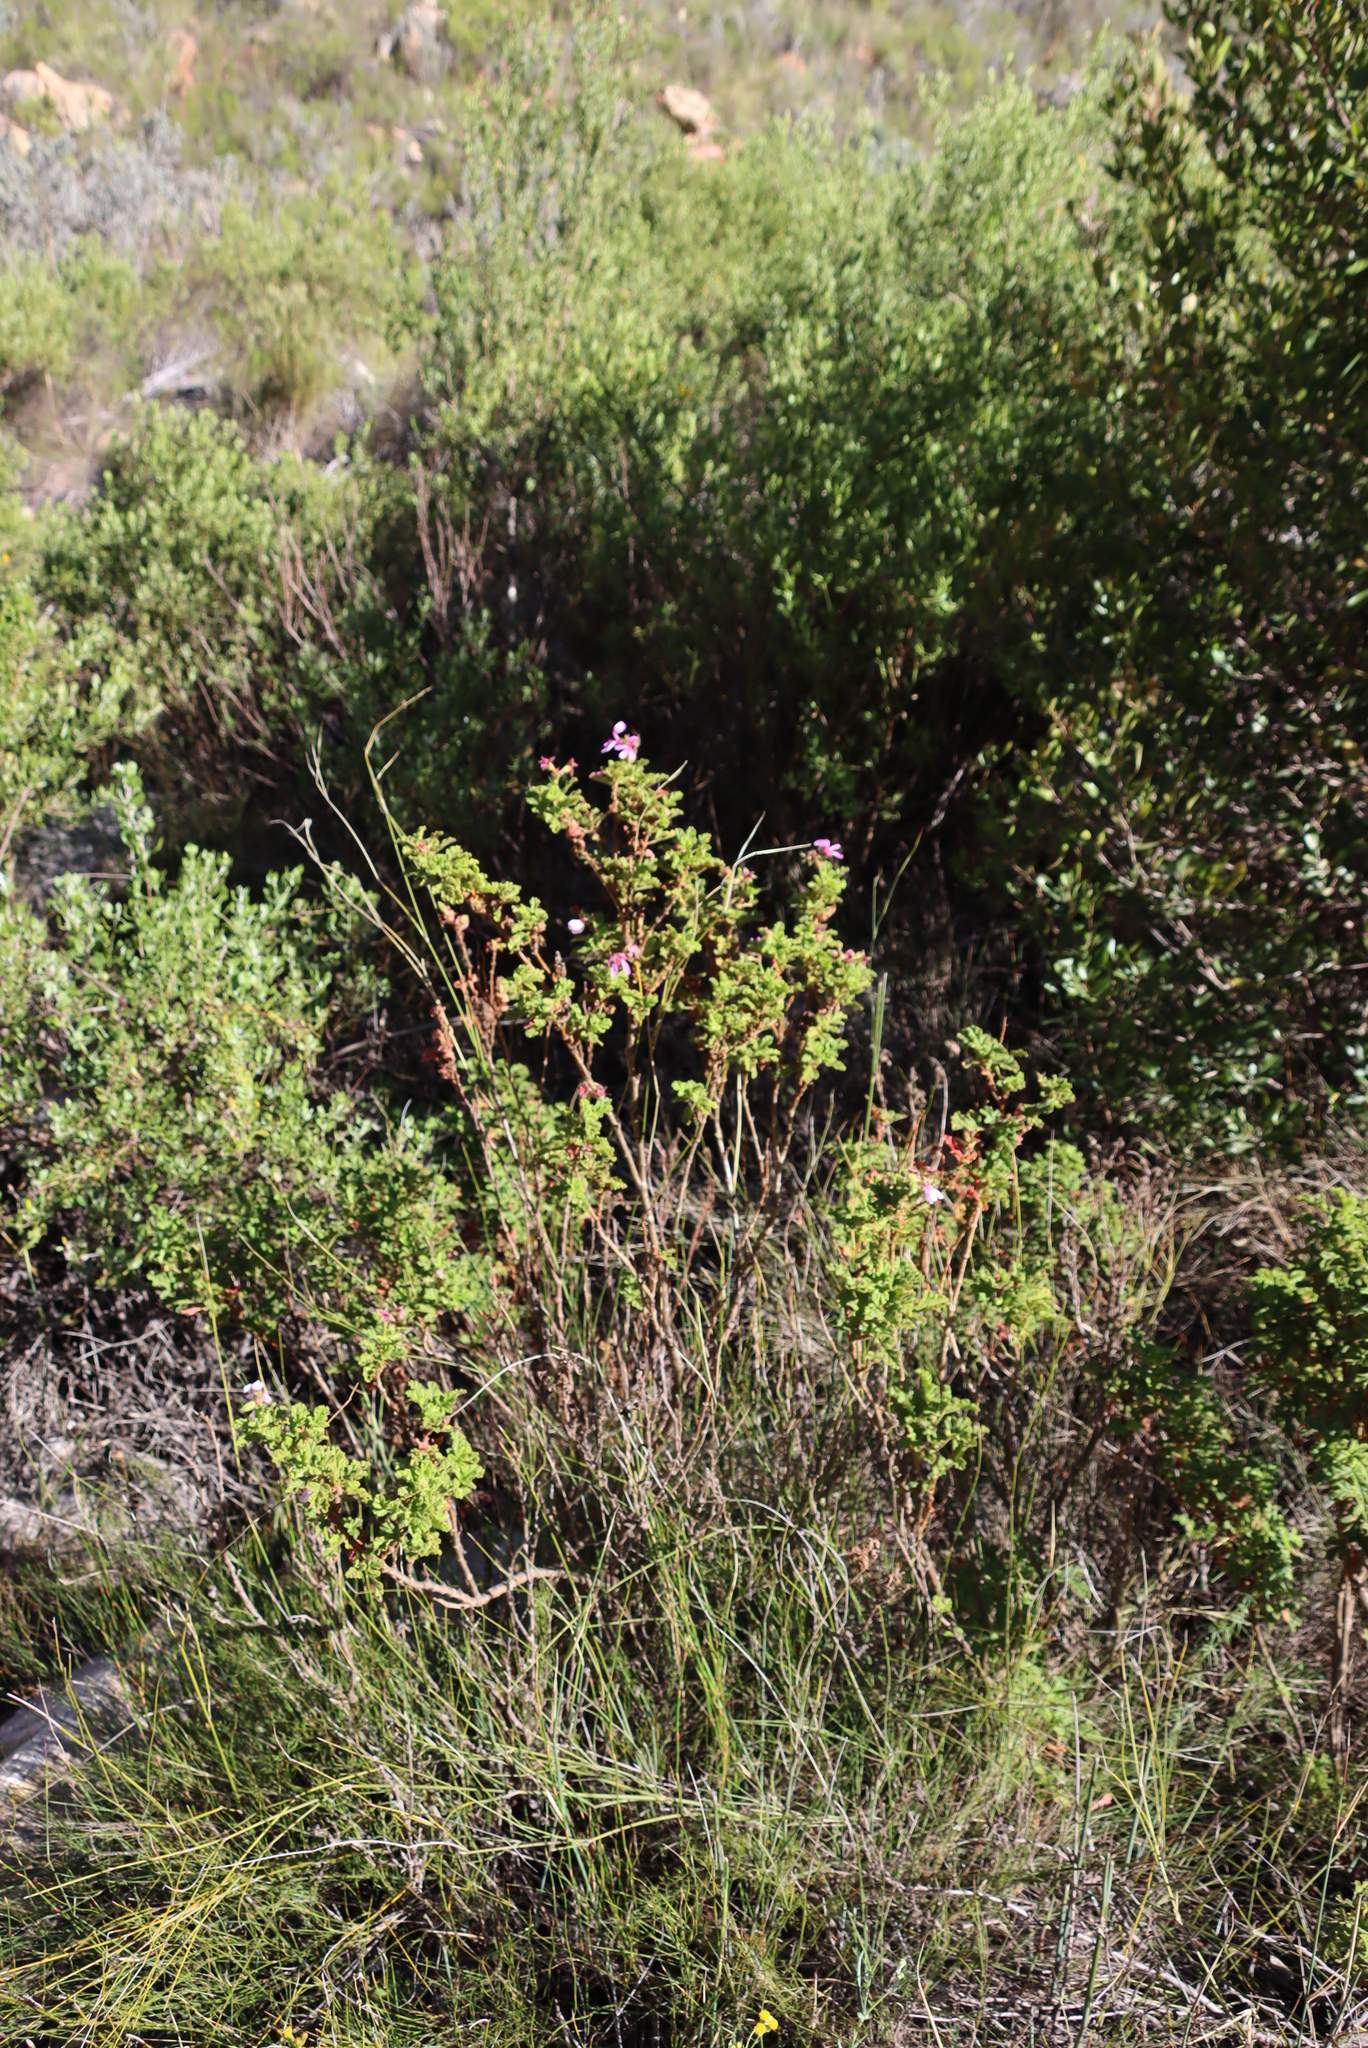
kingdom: Plantae
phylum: Tracheophyta
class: Magnoliopsida
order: Geraniales
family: Geraniaceae
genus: Pelargonium
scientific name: Pelargonium panduriforme
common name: Oakleaf garden geranium
